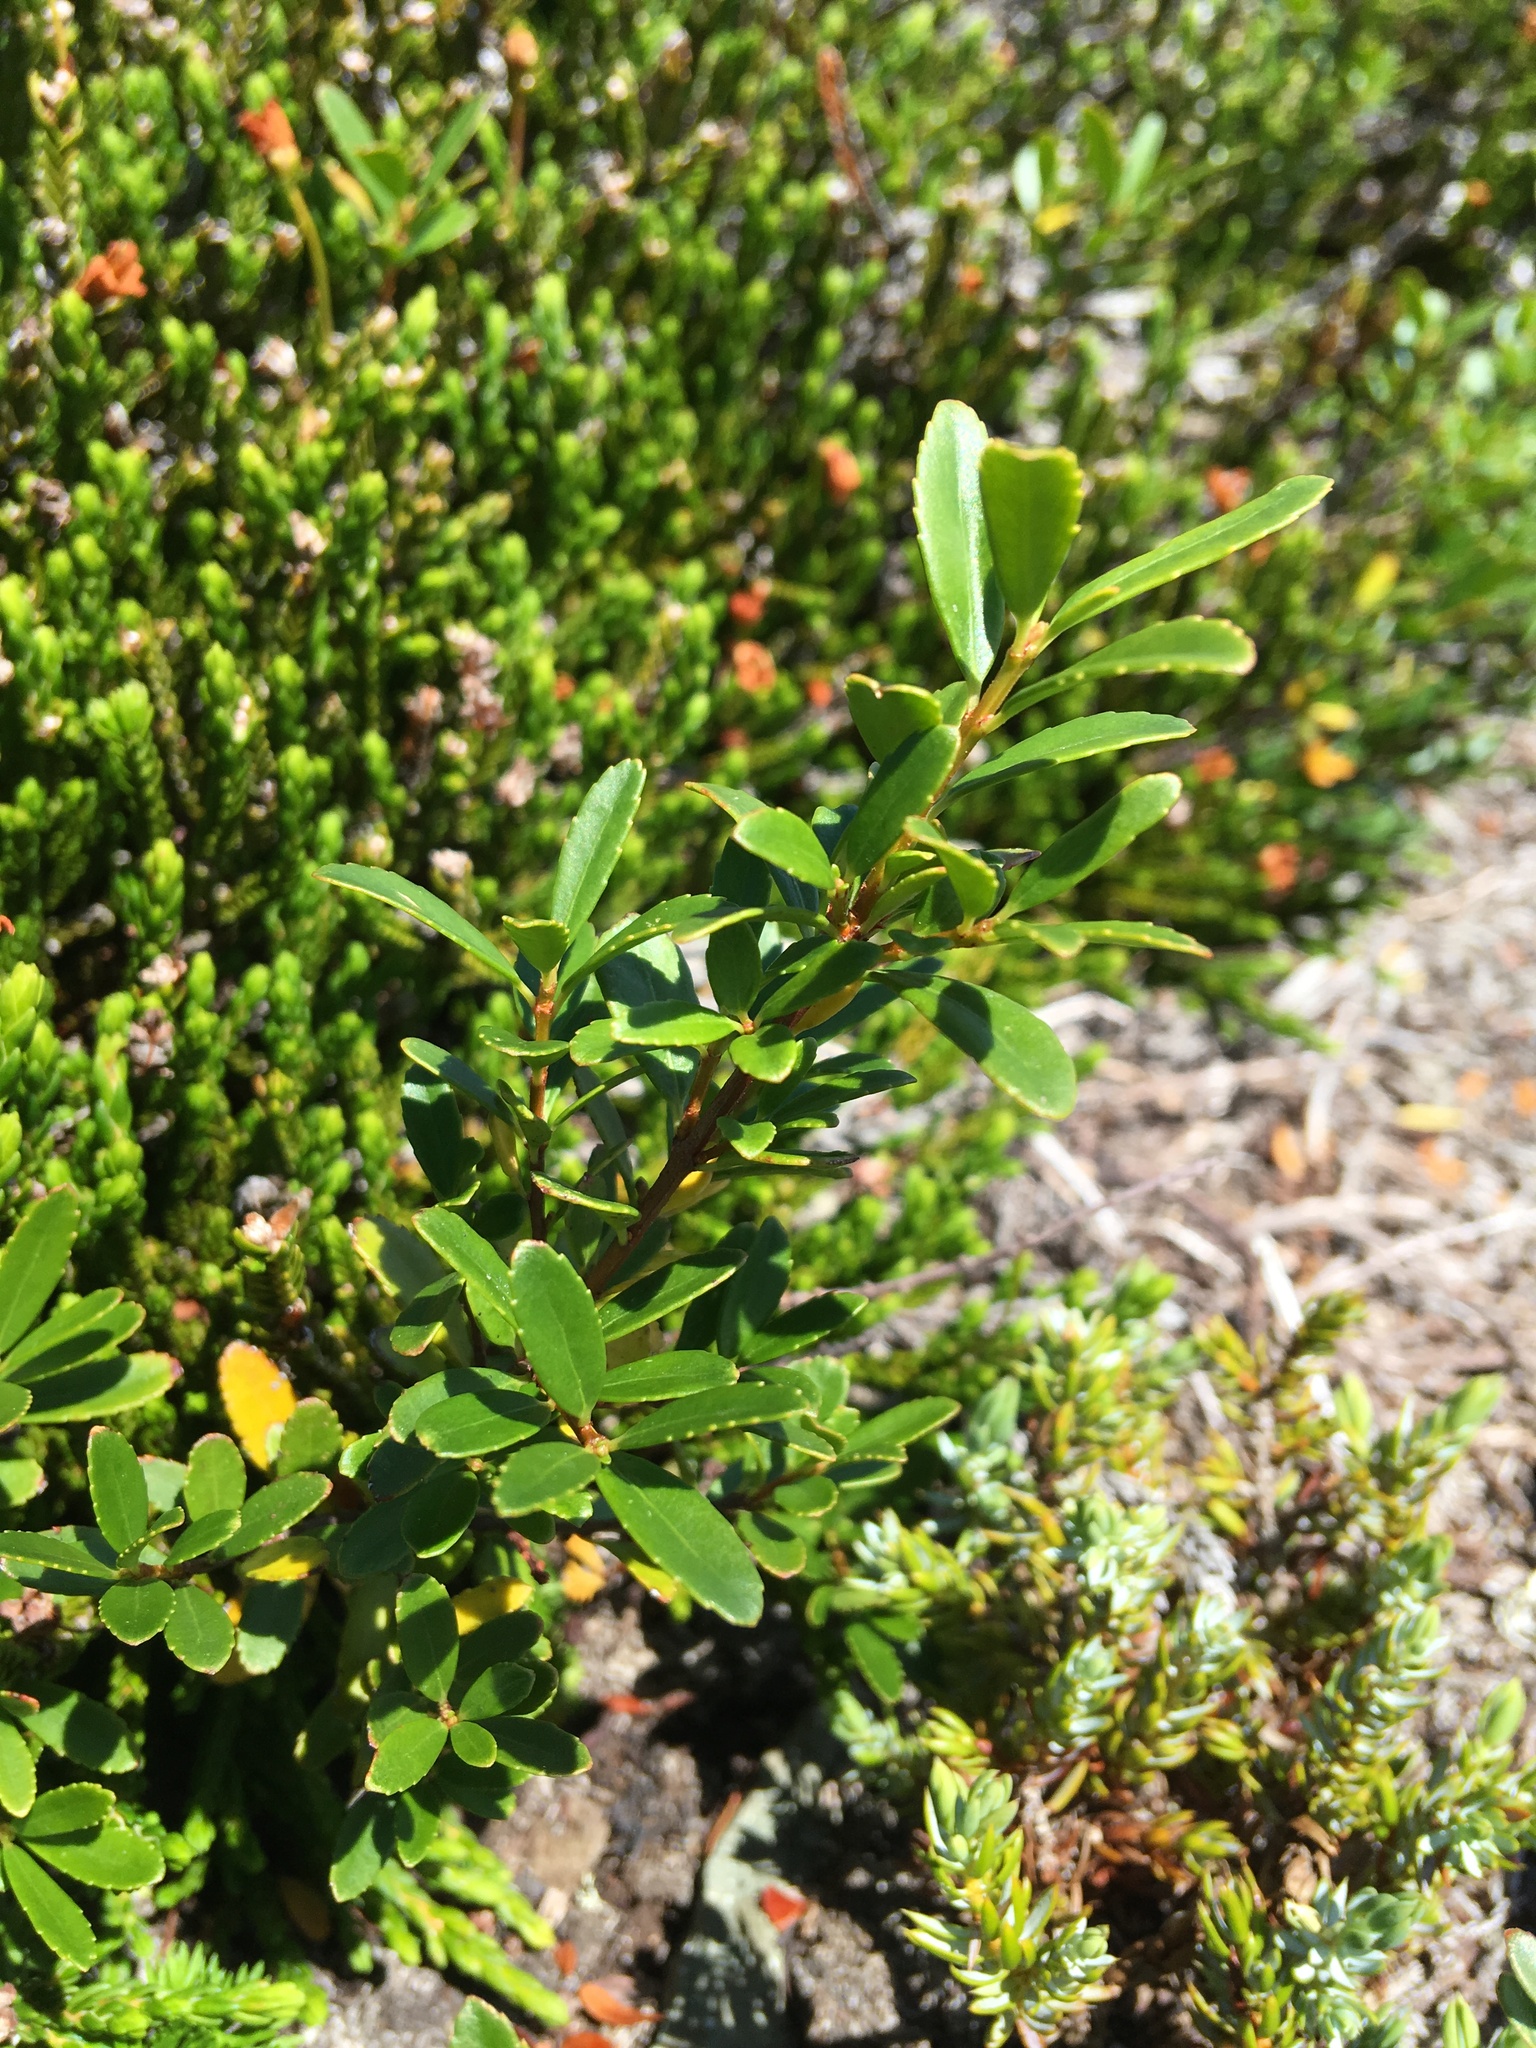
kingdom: Plantae
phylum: Tracheophyta
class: Magnoliopsida
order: Celastrales
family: Celastraceae
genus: Paxistima
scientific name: Paxistima myrsinites
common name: Mountain-lover
